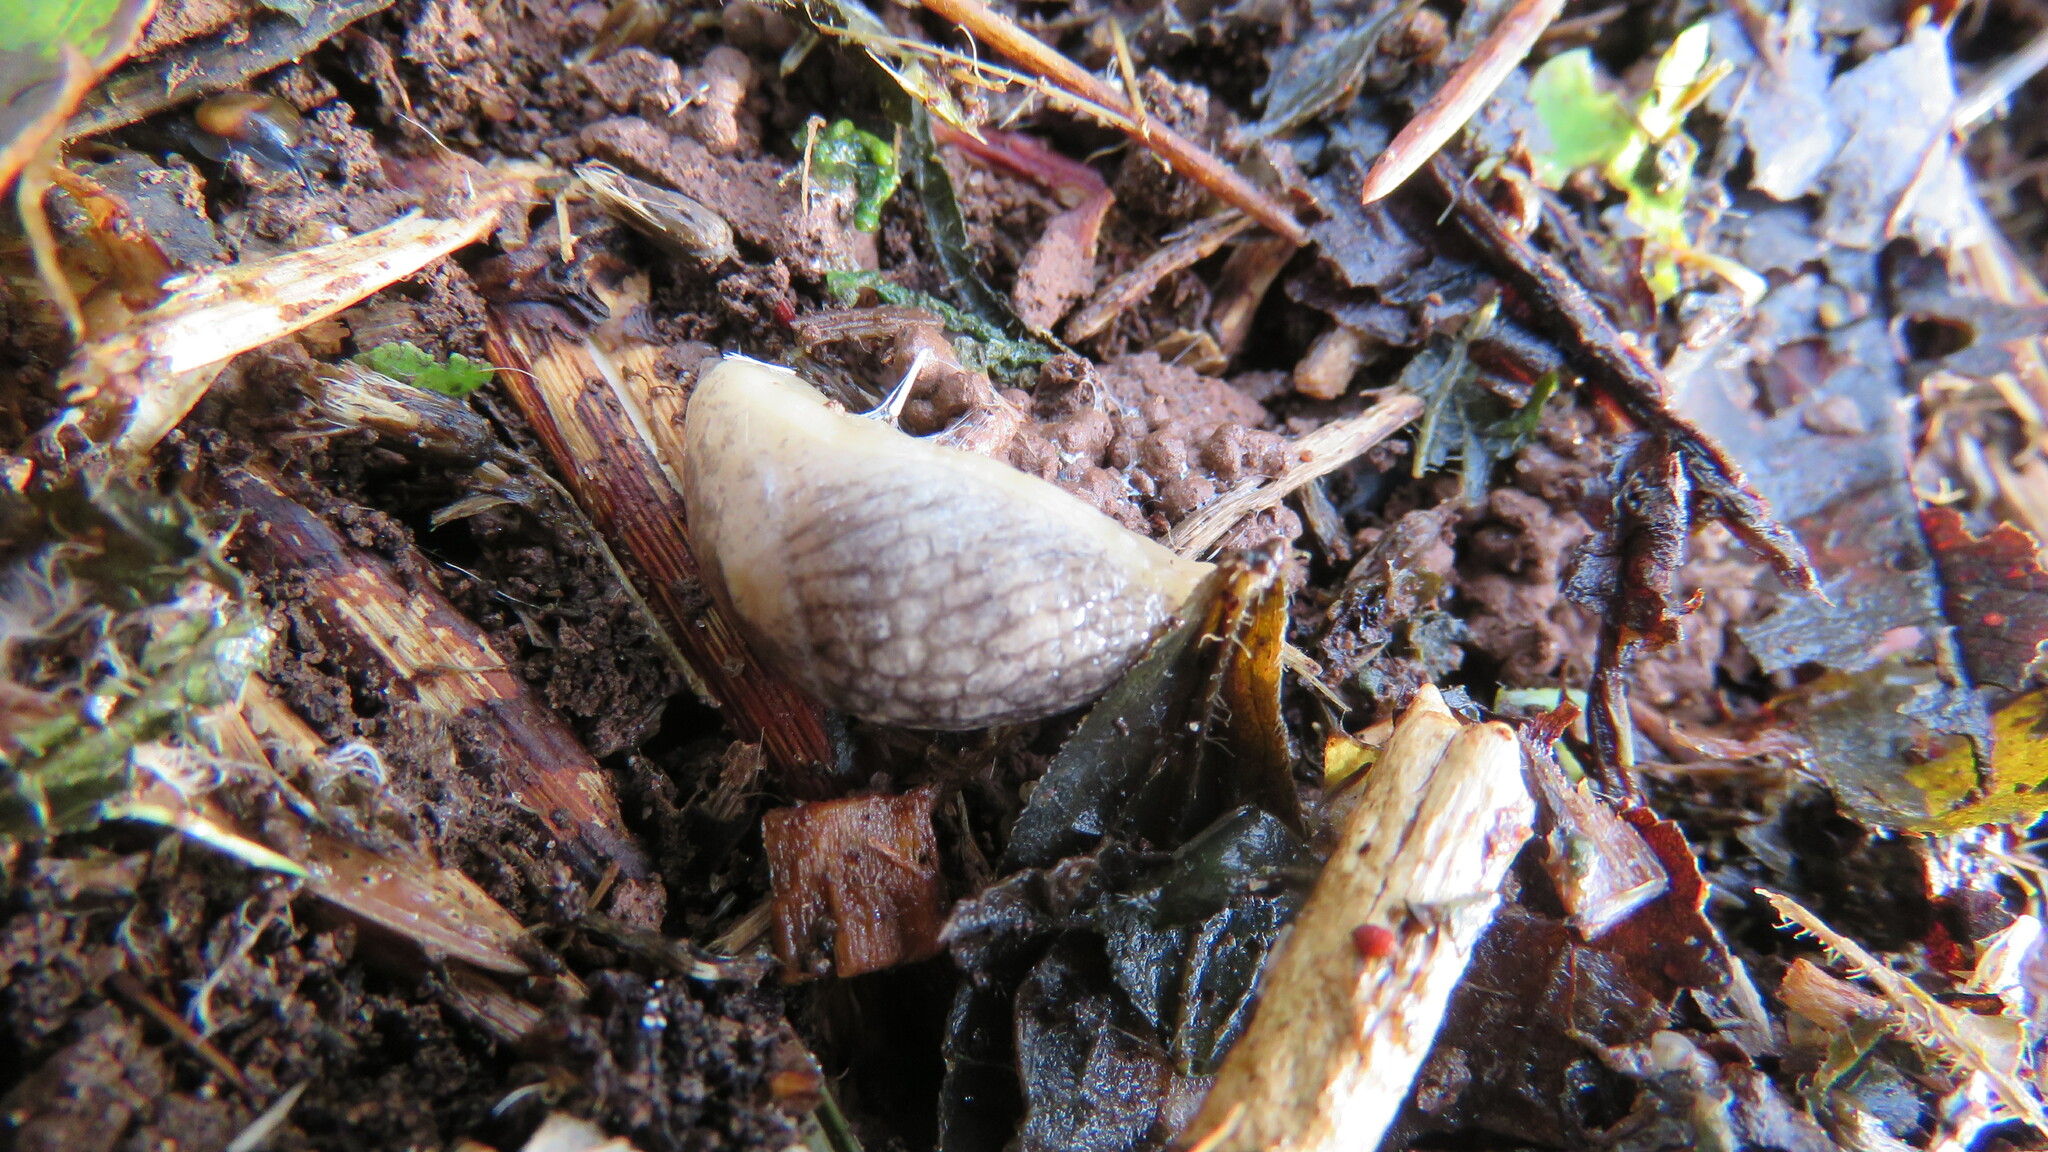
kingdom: Animalia
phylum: Mollusca
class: Gastropoda
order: Stylommatophora
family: Agriolimacidae
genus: Deroceras
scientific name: Deroceras reticulatum
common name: Gray field slug
